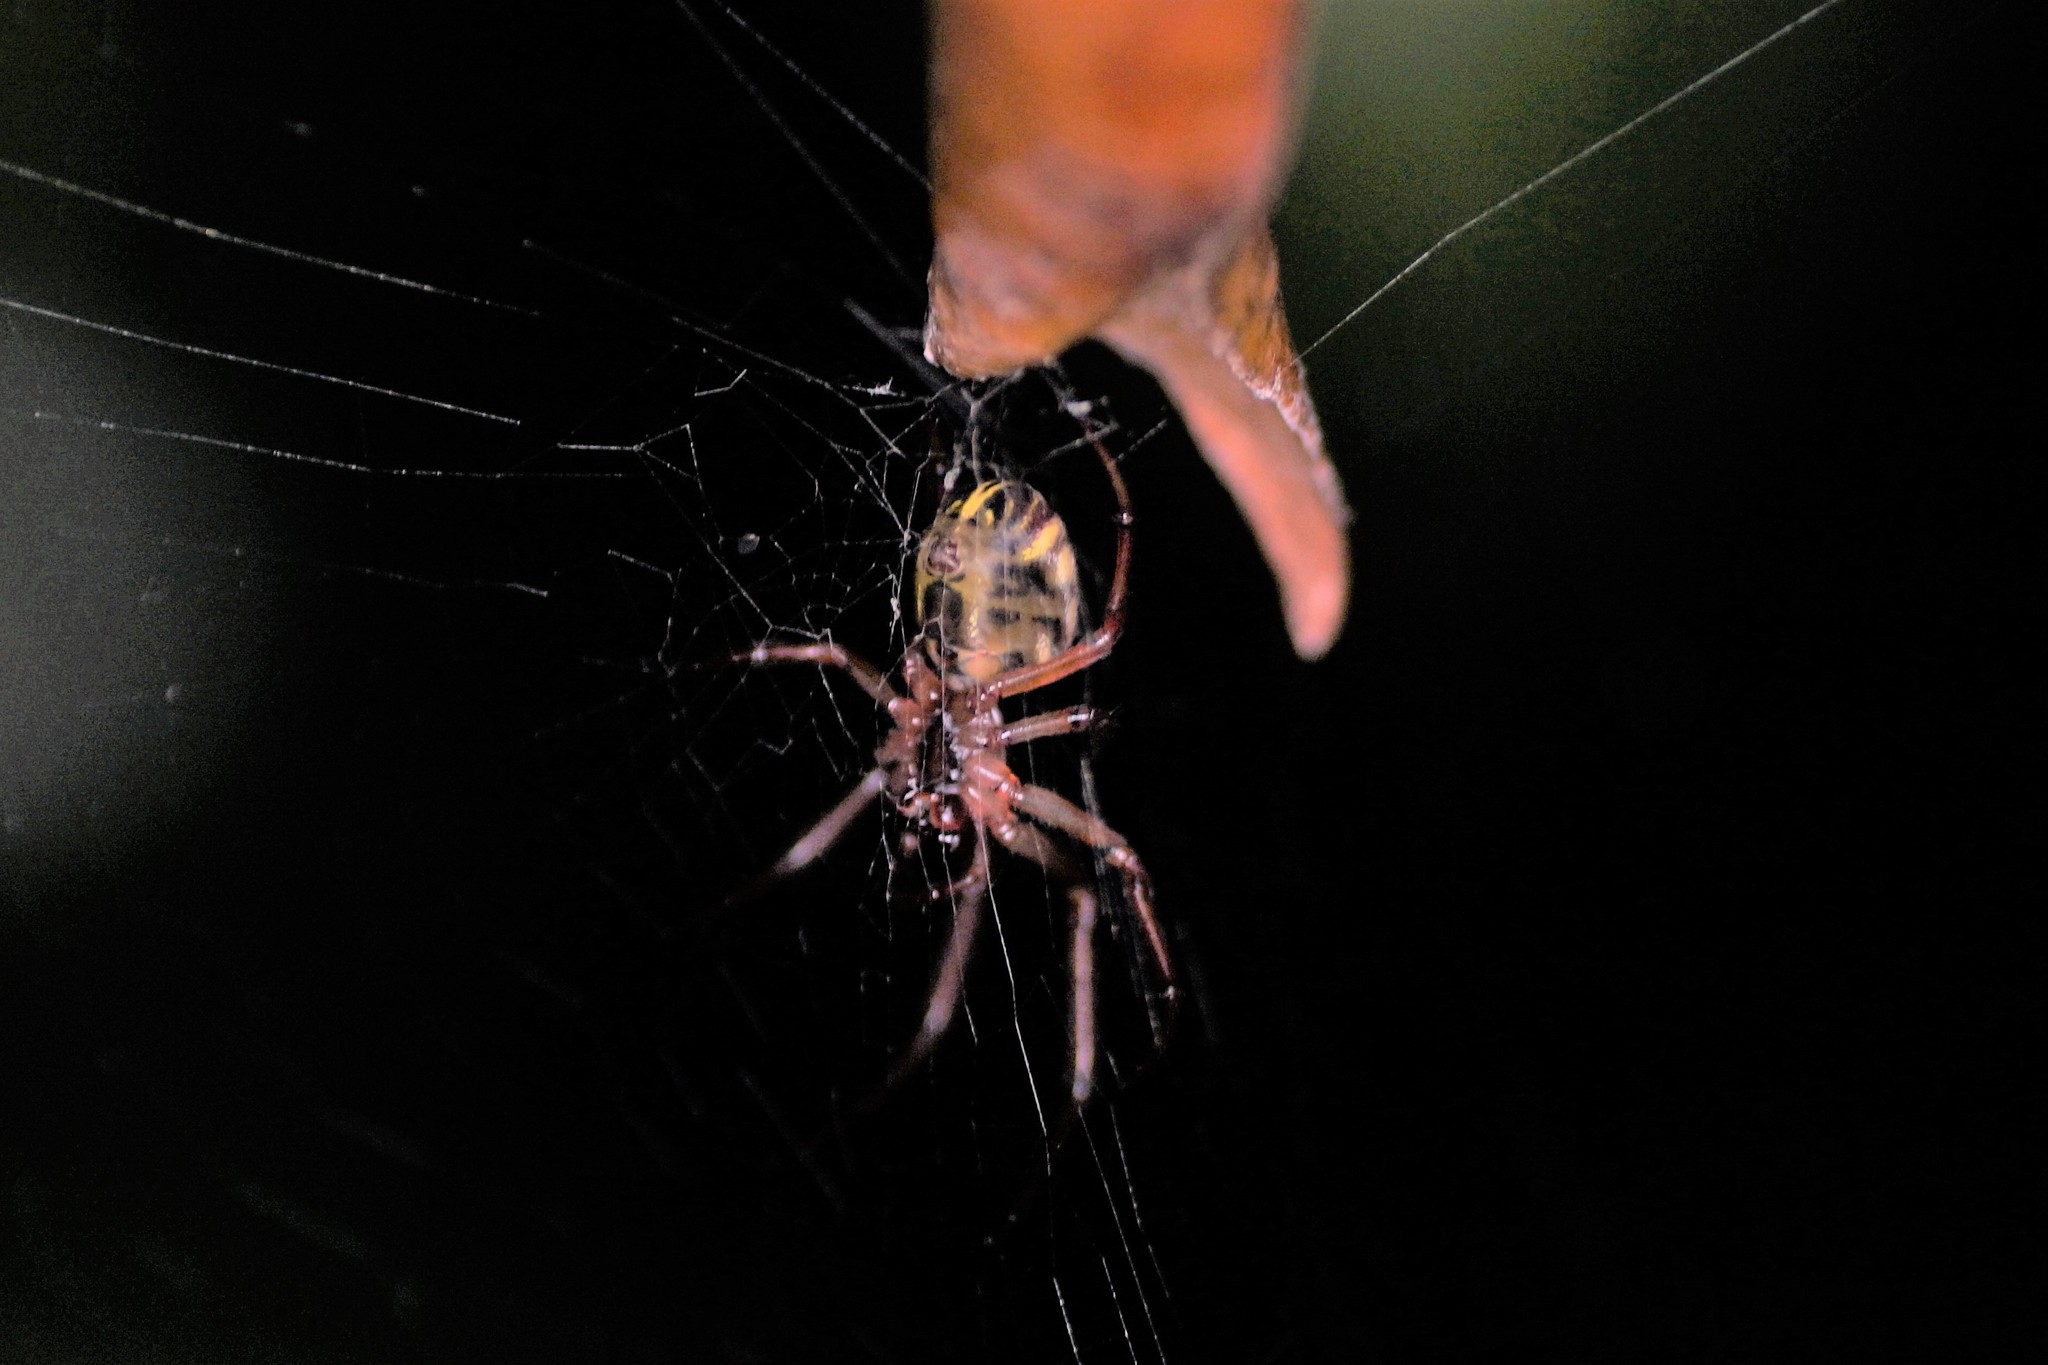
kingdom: Animalia
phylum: Arthropoda
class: Arachnida
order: Araneae
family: Araneidae
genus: Phonognatha
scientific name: Phonognatha graeffei
